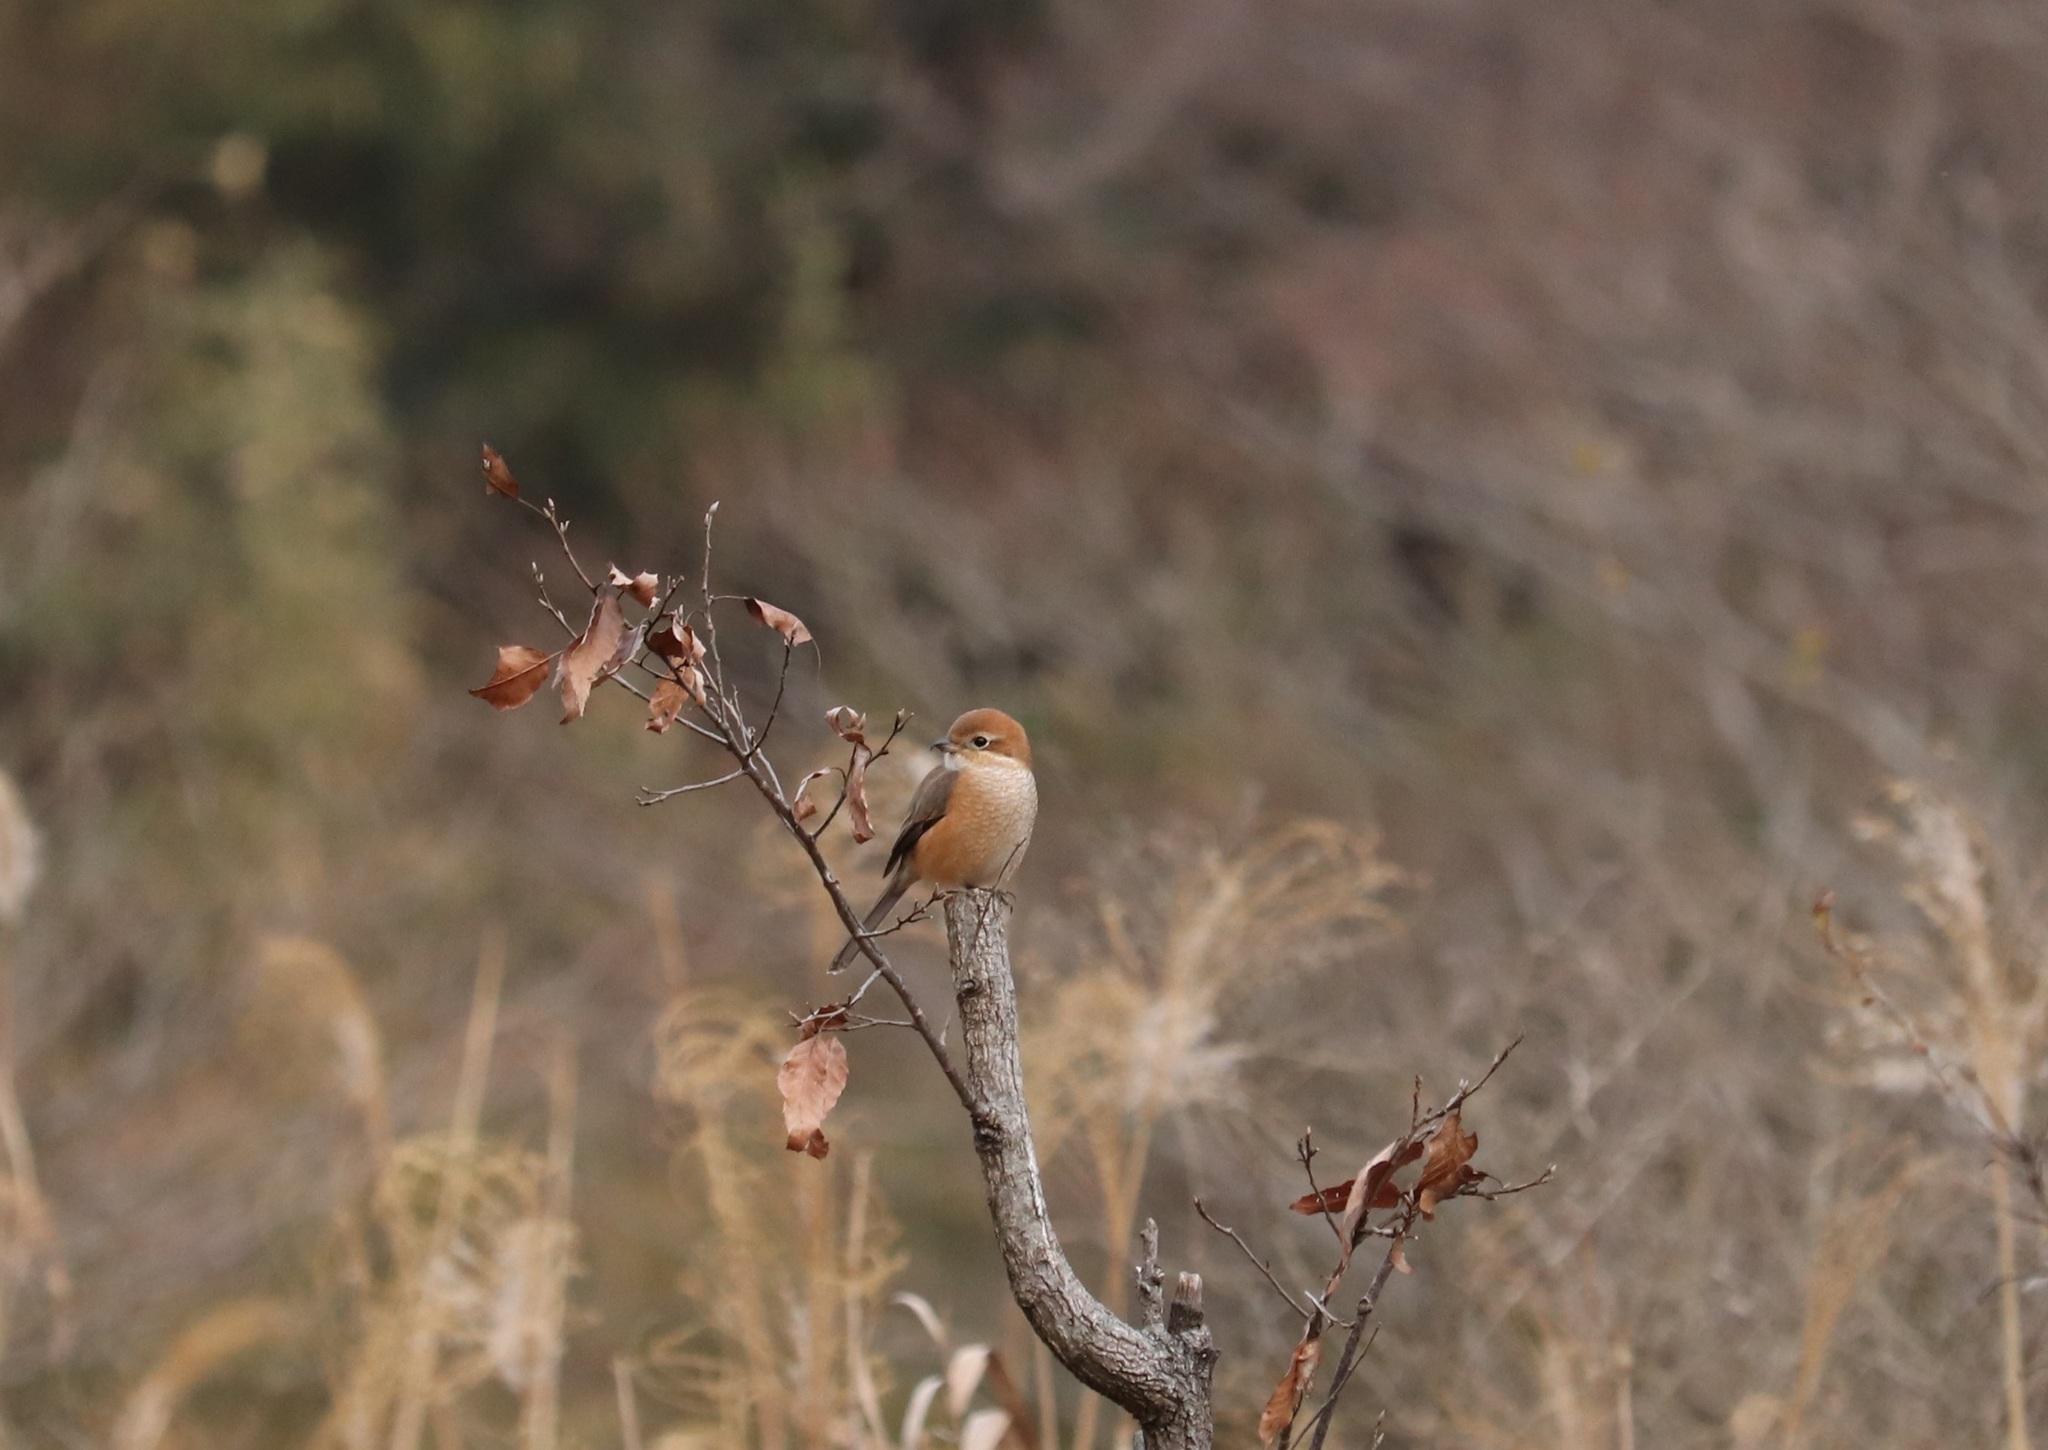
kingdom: Animalia
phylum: Chordata
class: Aves
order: Passeriformes
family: Laniidae
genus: Lanius
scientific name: Lanius bucephalus
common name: Bull-headed shrike
